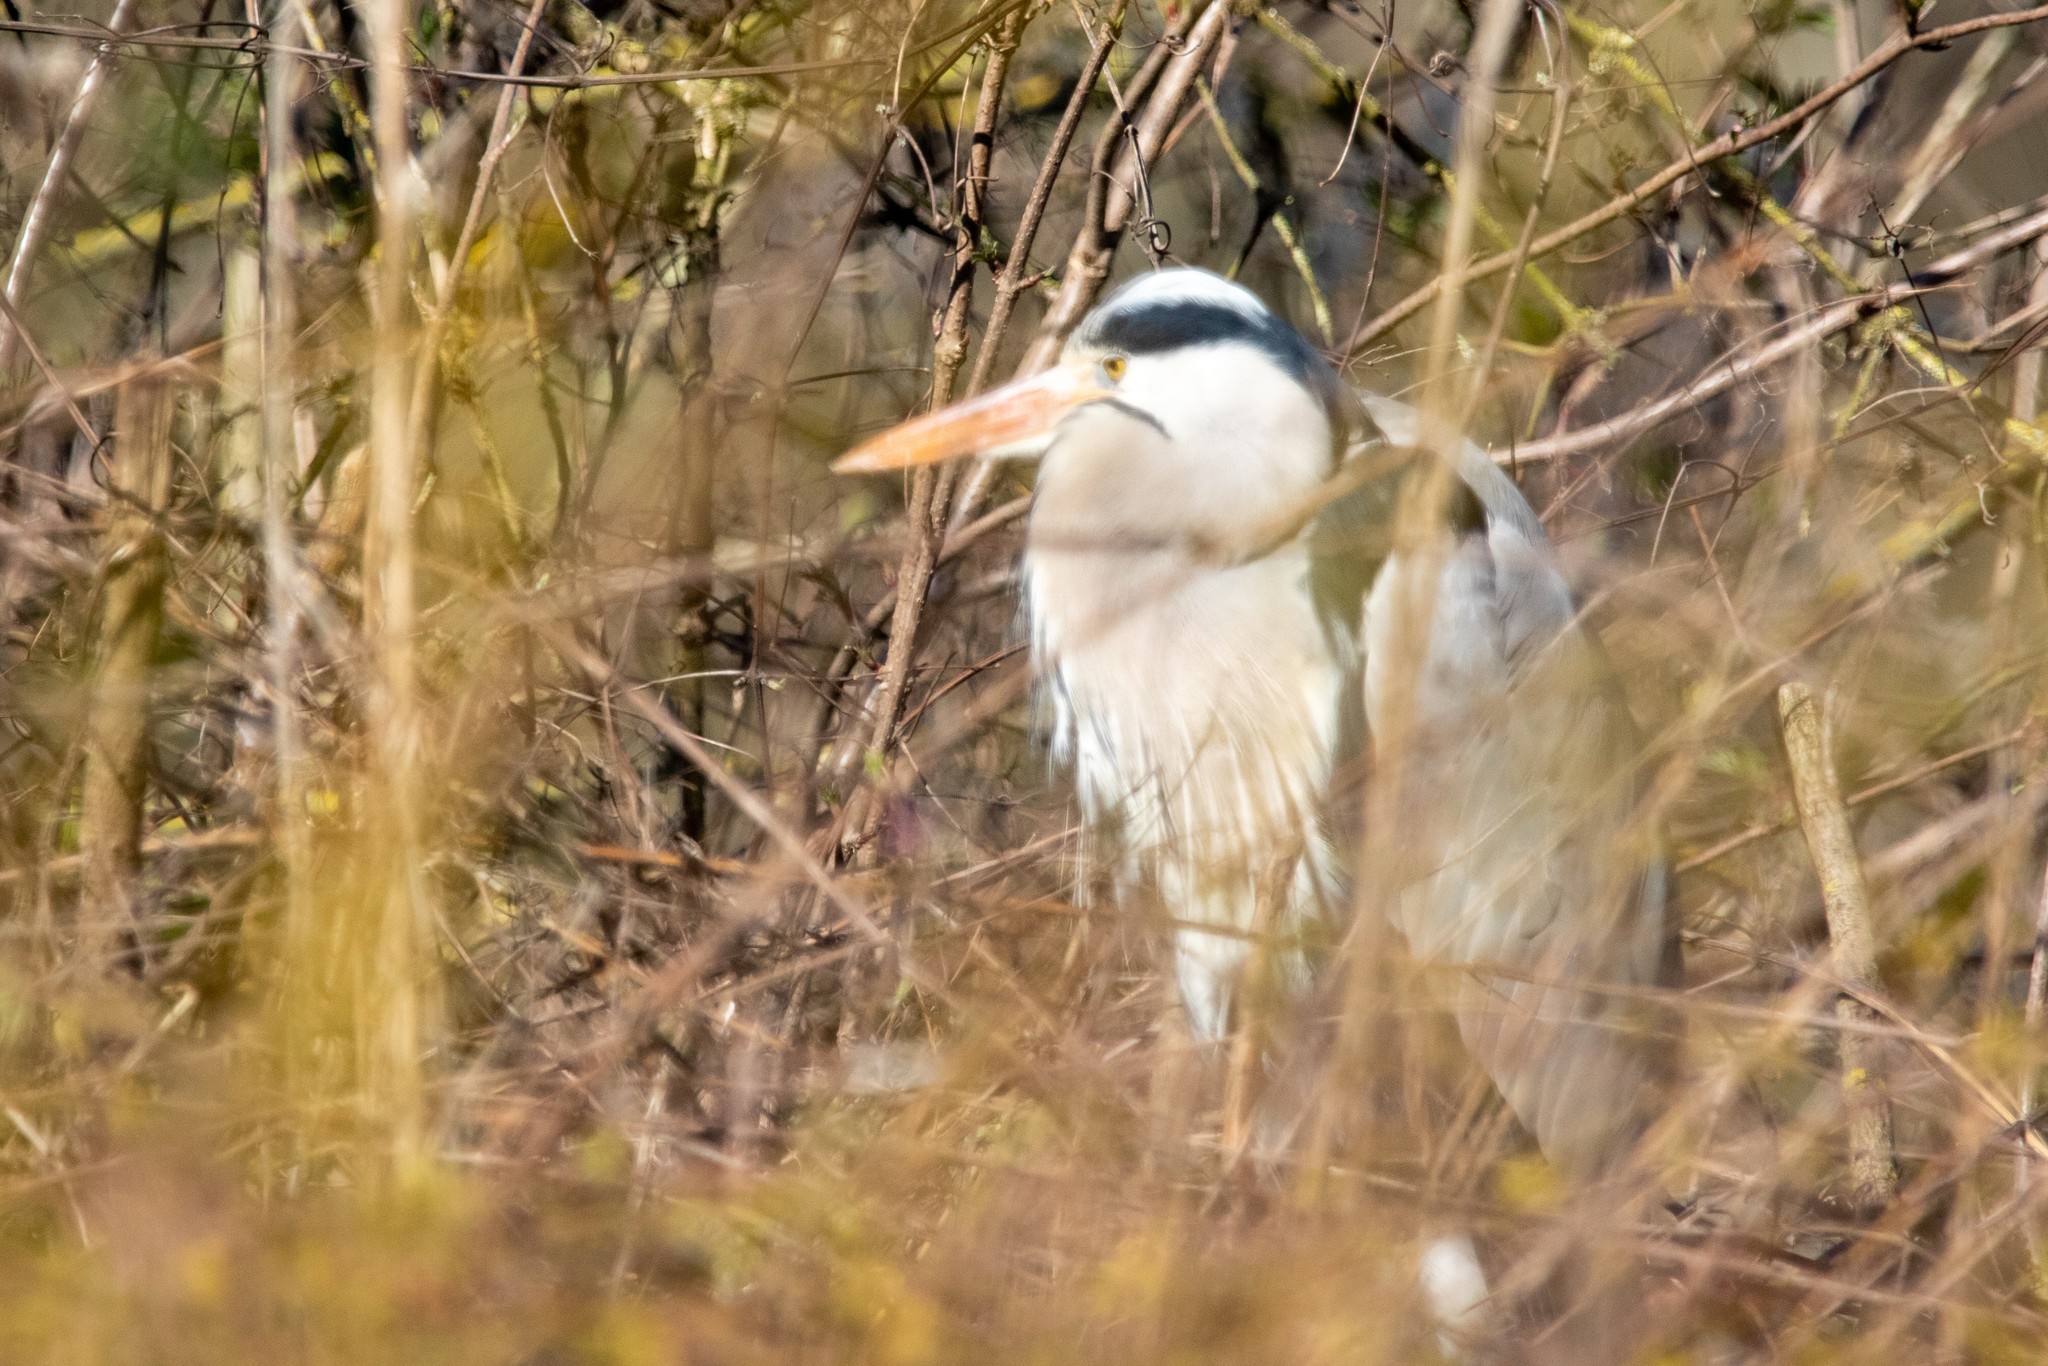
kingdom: Animalia
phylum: Chordata
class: Aves
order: Pelecaniformes
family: Ardeidae
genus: Ardea
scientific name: Ardea cinerea
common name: Grey heron
